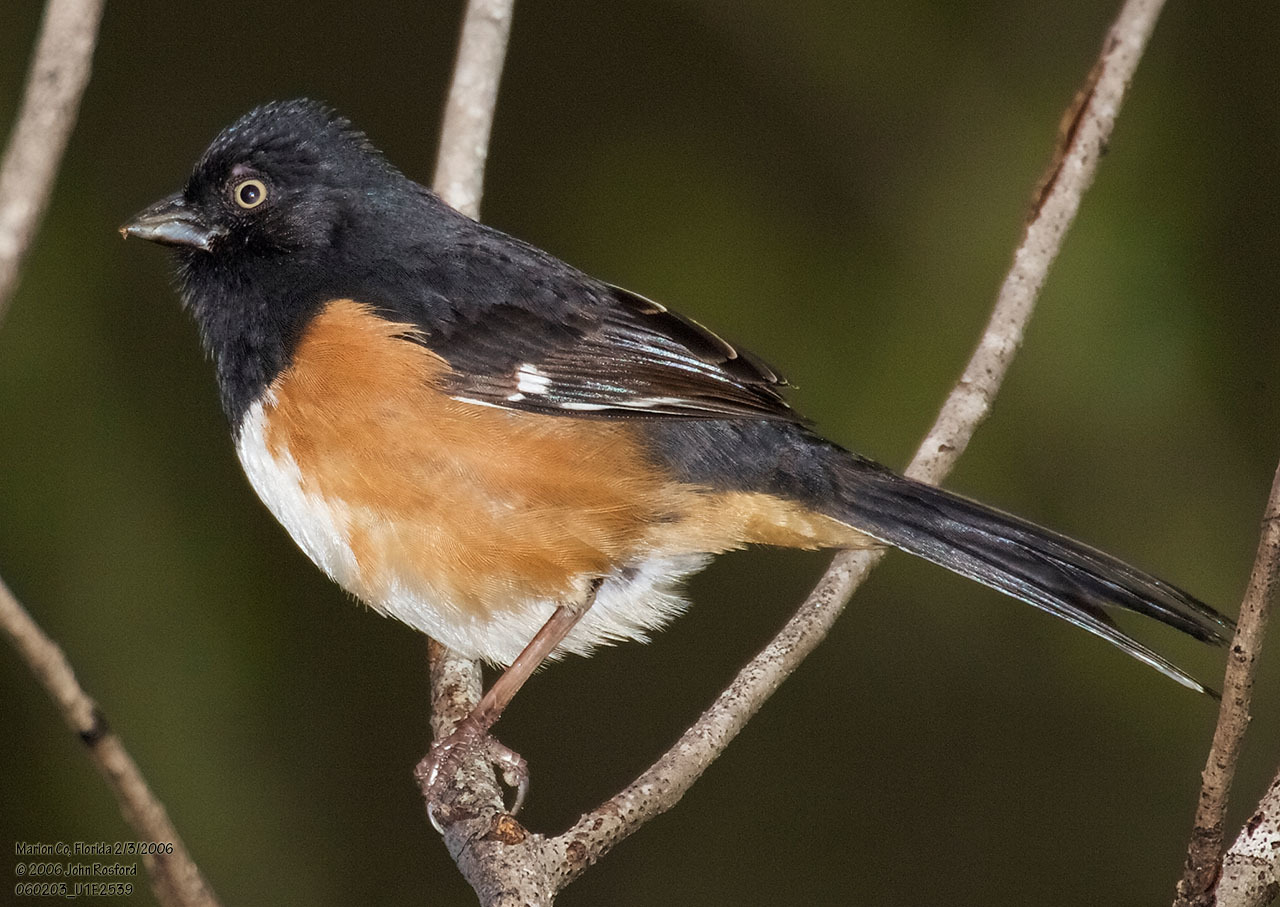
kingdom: Animalia
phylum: Chordata
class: Aves
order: Passeriformes
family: Passerellidae
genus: Pipilo
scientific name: Pipilo erythrophthalmus
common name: Eastern towhee
